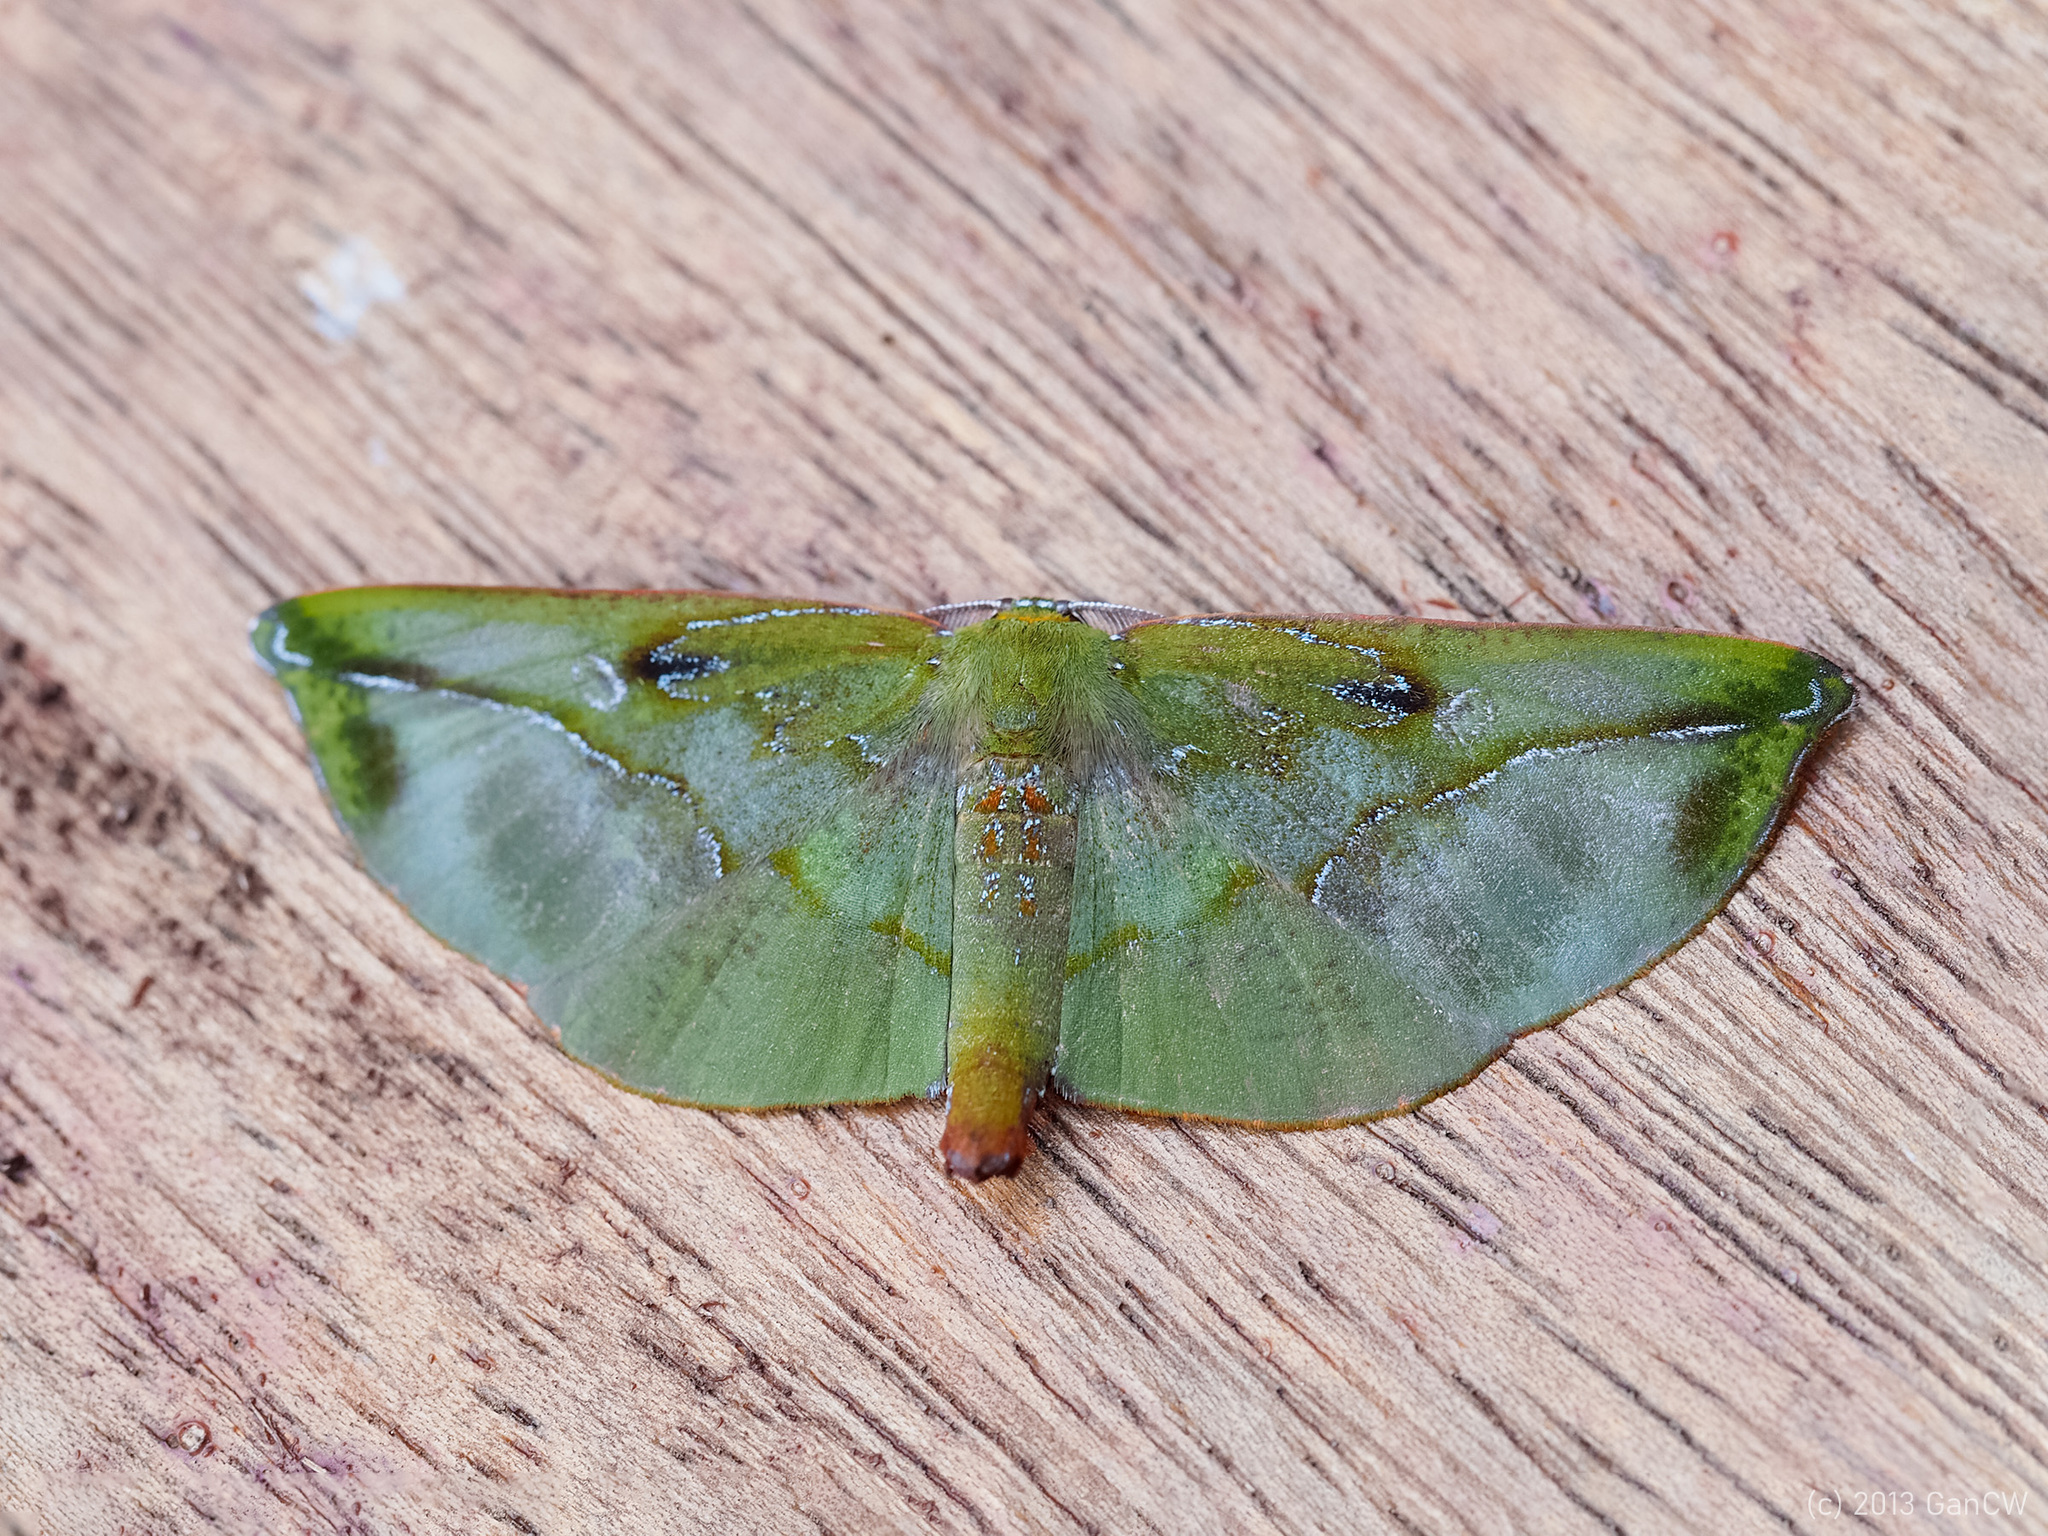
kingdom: Animalia
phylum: Arthropoda
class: Insecta
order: Lepidoptera
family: Geometridae
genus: Omiza
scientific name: Omiza lycoraria
